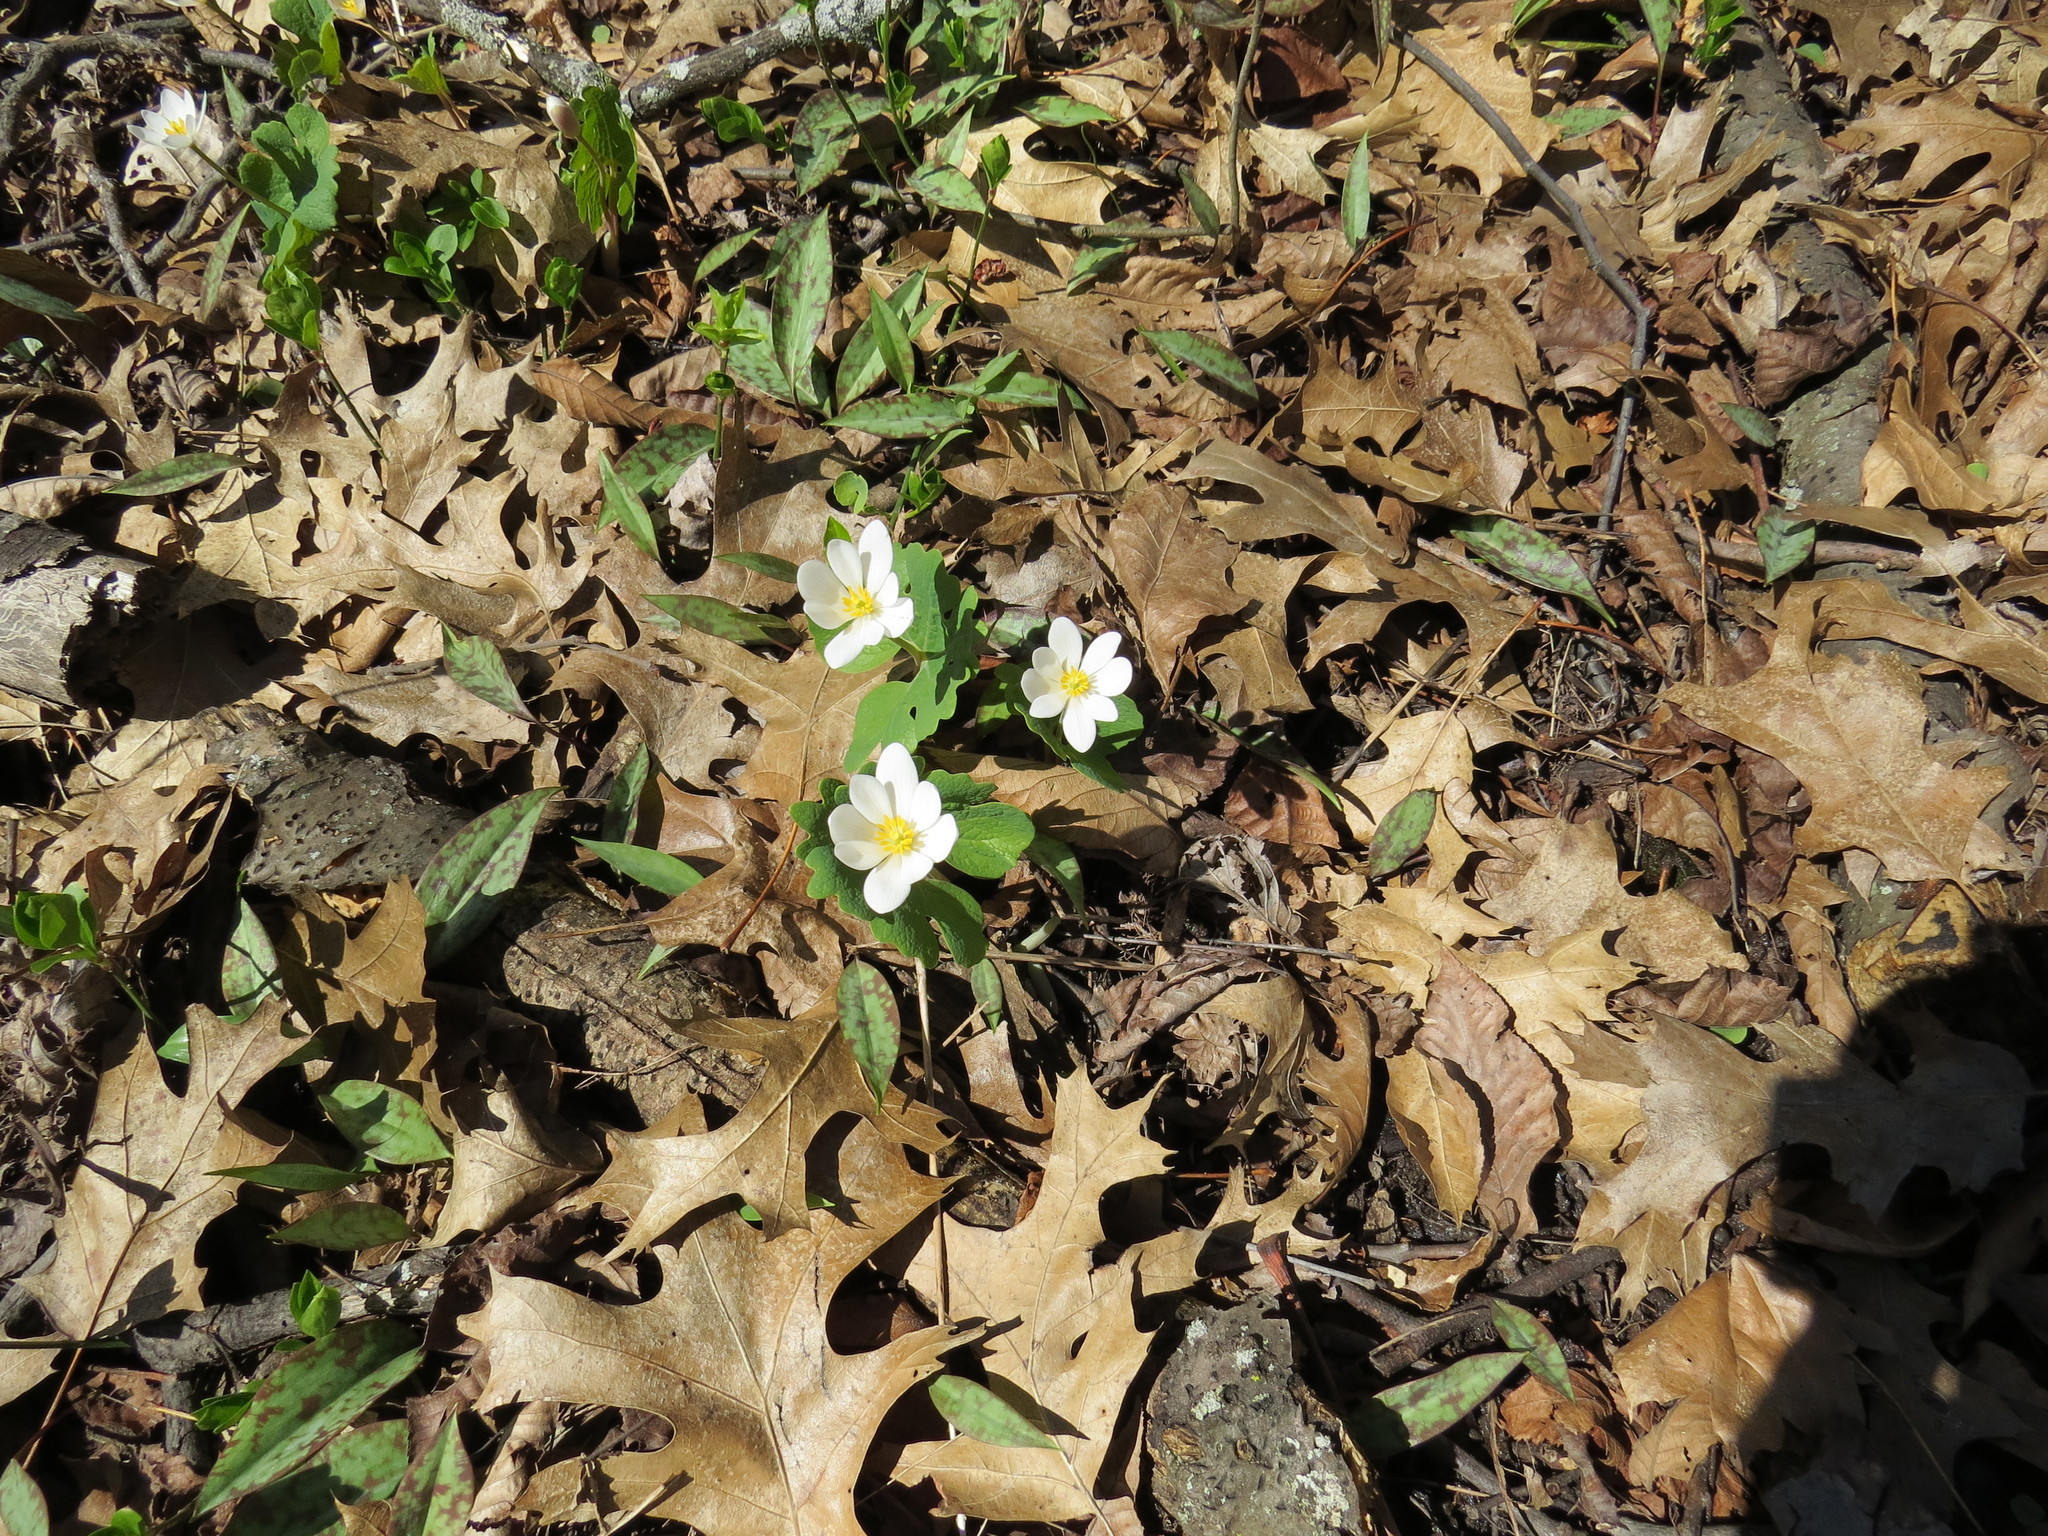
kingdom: Plantae
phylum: Tracheophyta
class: Magnoliopsida
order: Ranunculales
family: Papaveraceae
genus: Sanguinaria
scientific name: Sanguinaria canadensis
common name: Bloodroot
